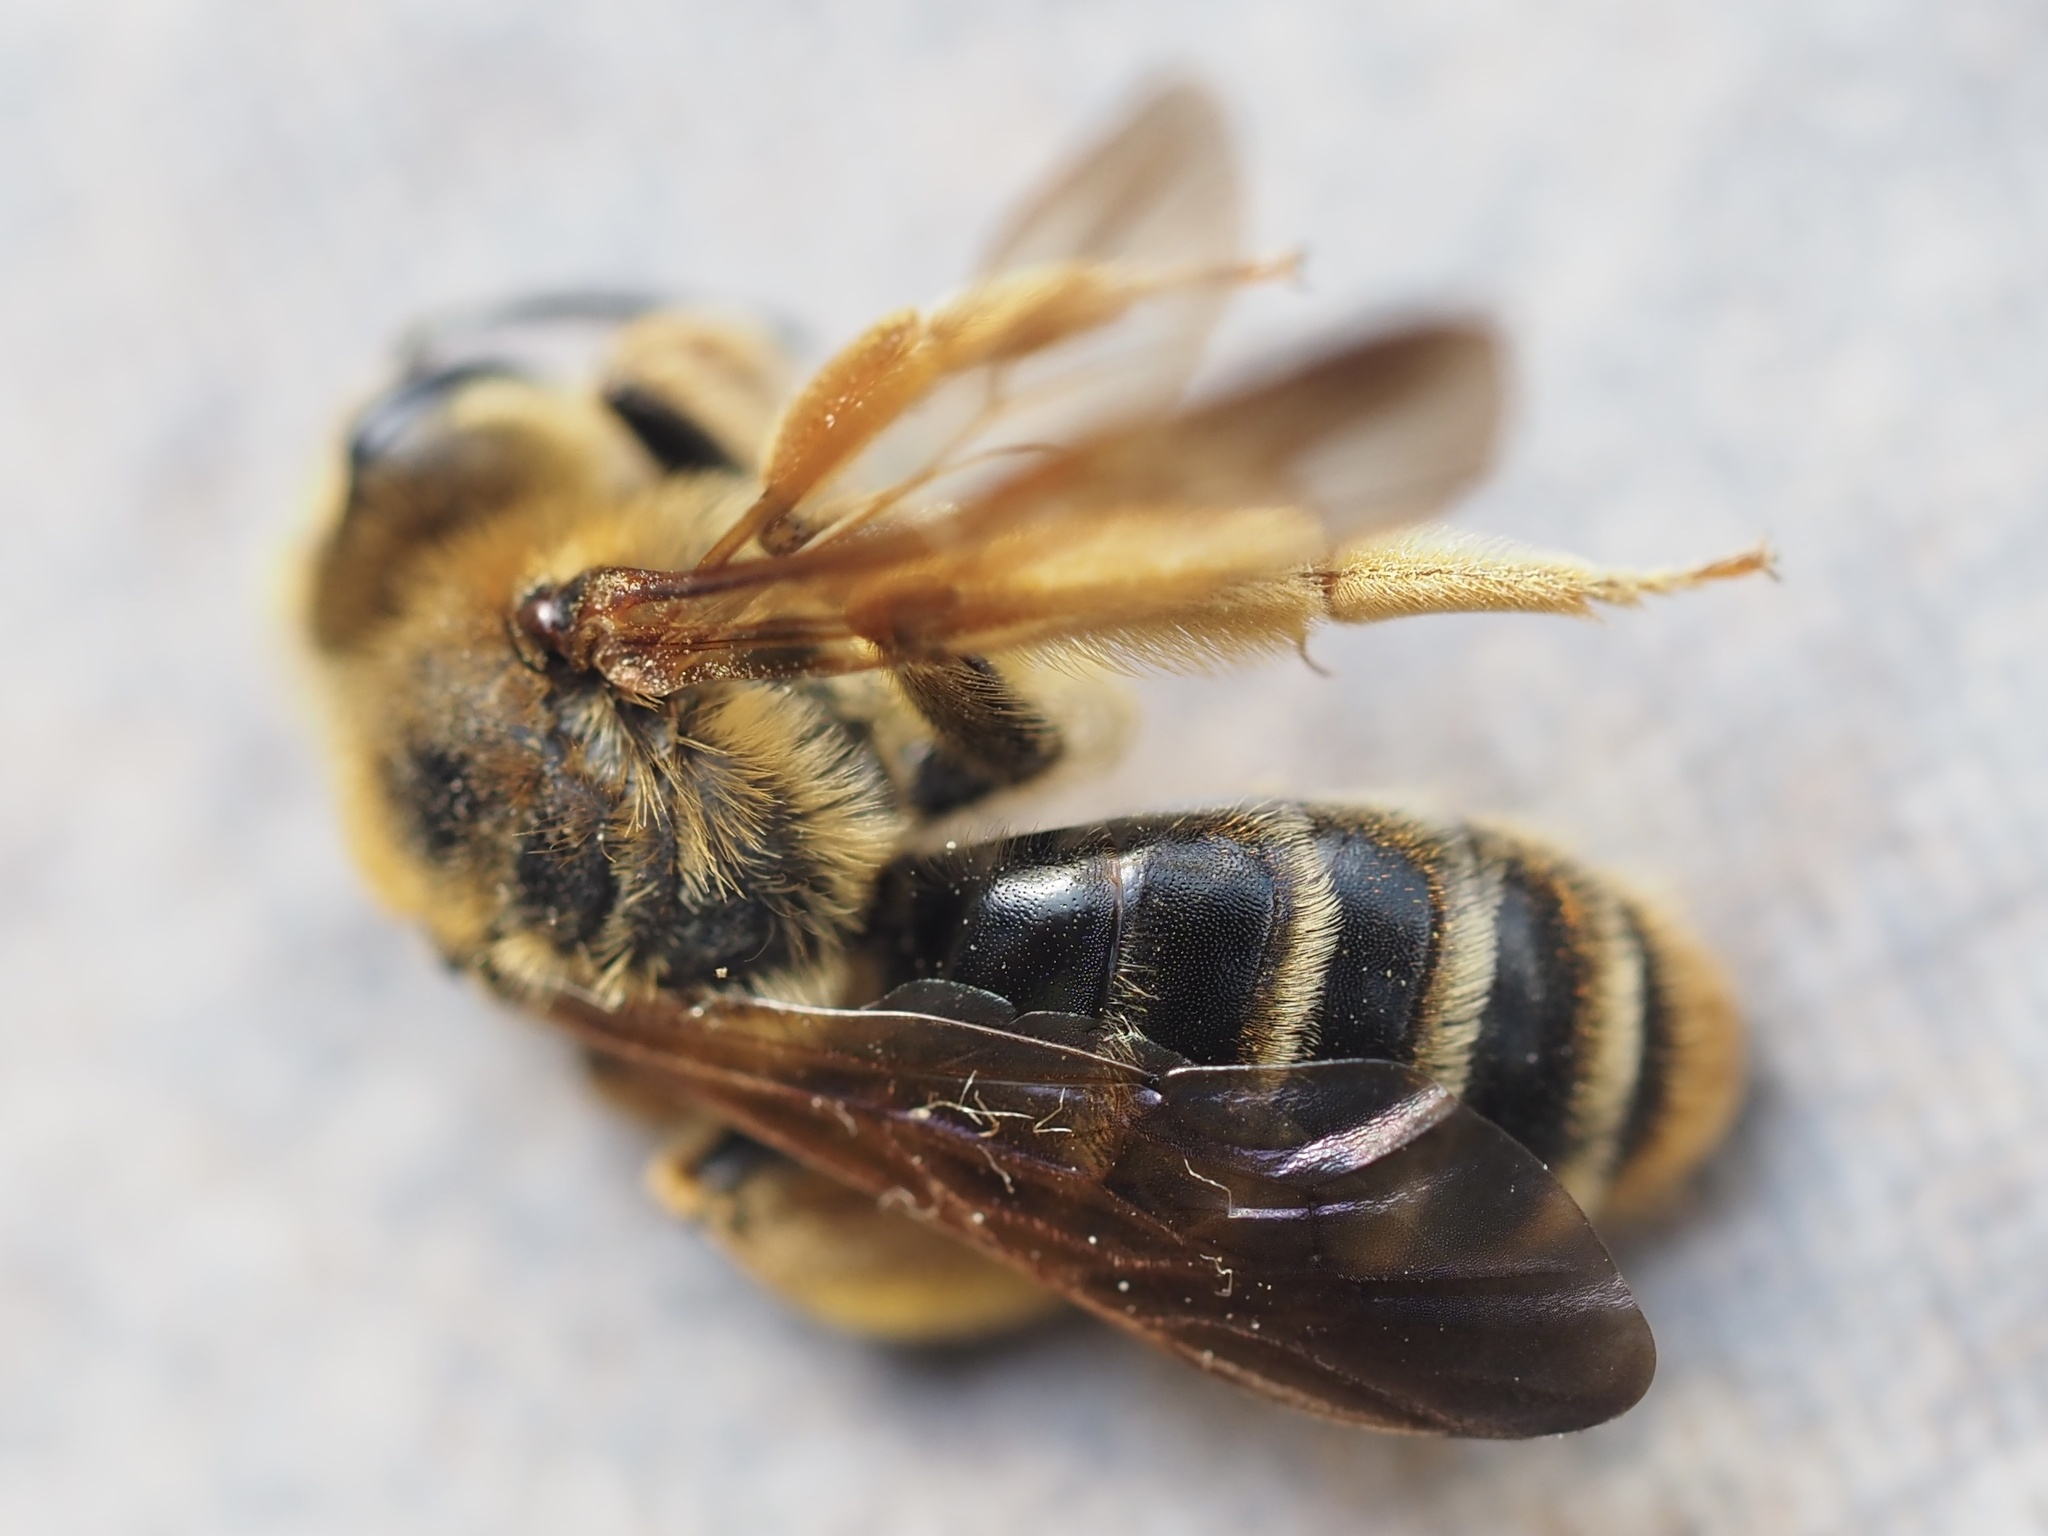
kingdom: Animalia
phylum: Arthropoda
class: Insecta
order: Hymenoptera
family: Andrenidae
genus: Andrena
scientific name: Andrena prunorum
